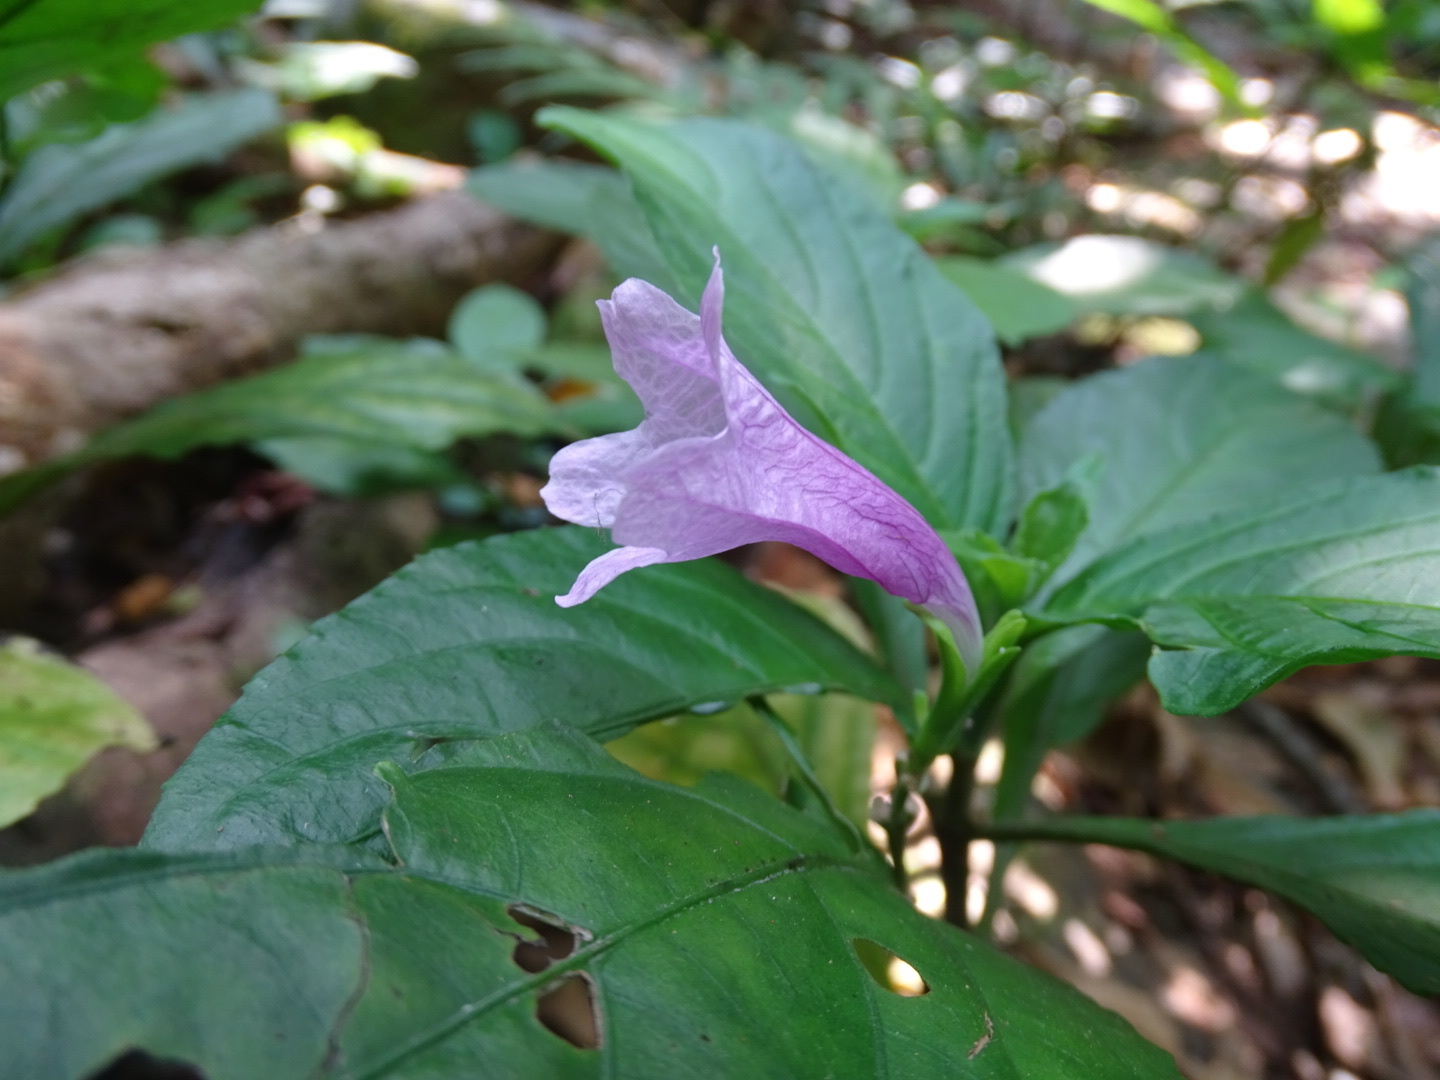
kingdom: Plantae
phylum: Tracheophyta
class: Magnoliopsida
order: Lamiales
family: Acanthaceae
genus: Strobilanthes
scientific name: Strobilanthes cusia
